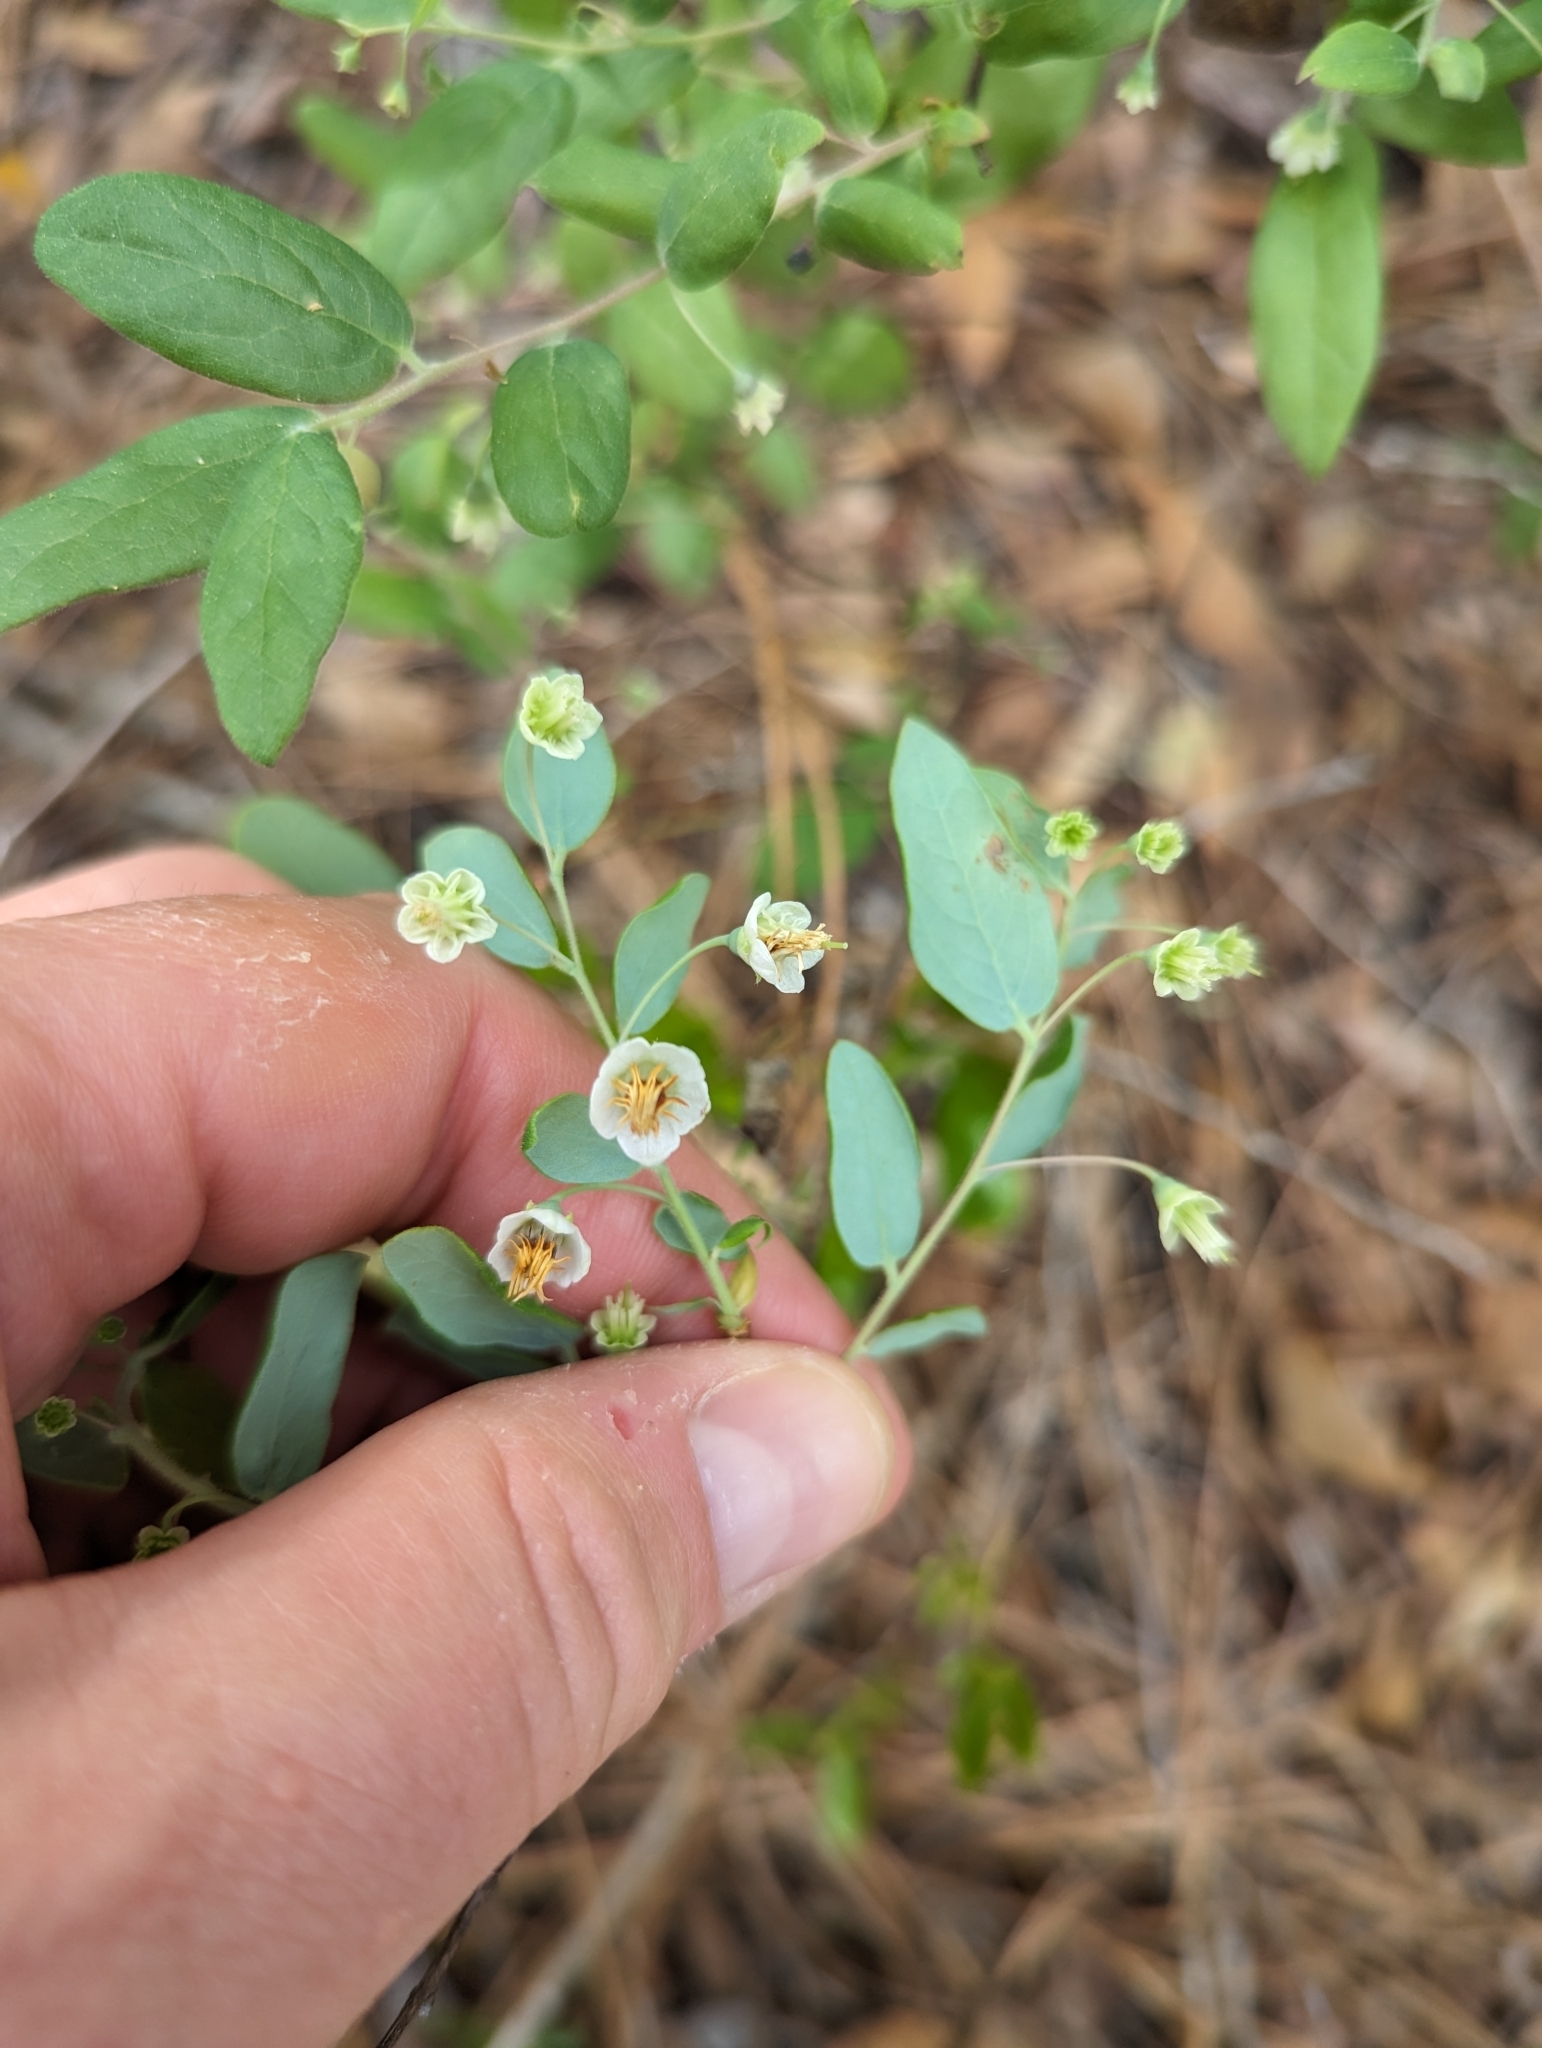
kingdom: Plantae
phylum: Tracheophyta
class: Magnoliopsida
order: Ericales
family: Ericaceae
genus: Vaccinium
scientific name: Vaccinium stamineum
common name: Deerberry
